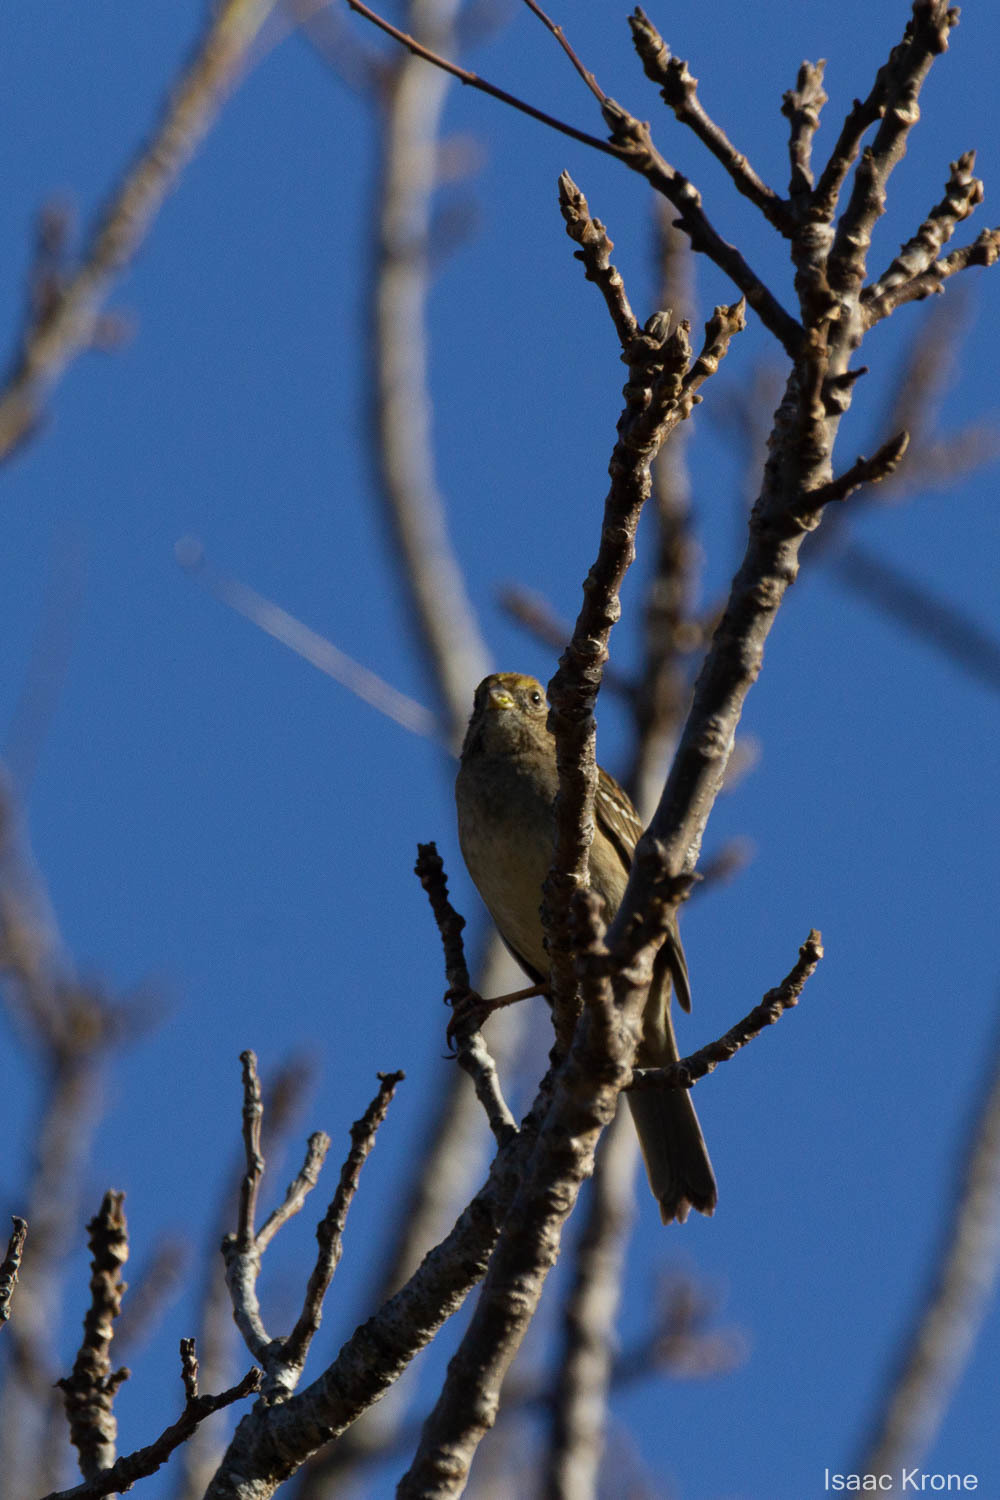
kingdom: Animalia
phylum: Chordata
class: Aves
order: Passeriformes
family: Passerellidae
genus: Zonotrichia
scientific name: Zonotrichia atricapilla
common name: Golden-crowned sparrow
